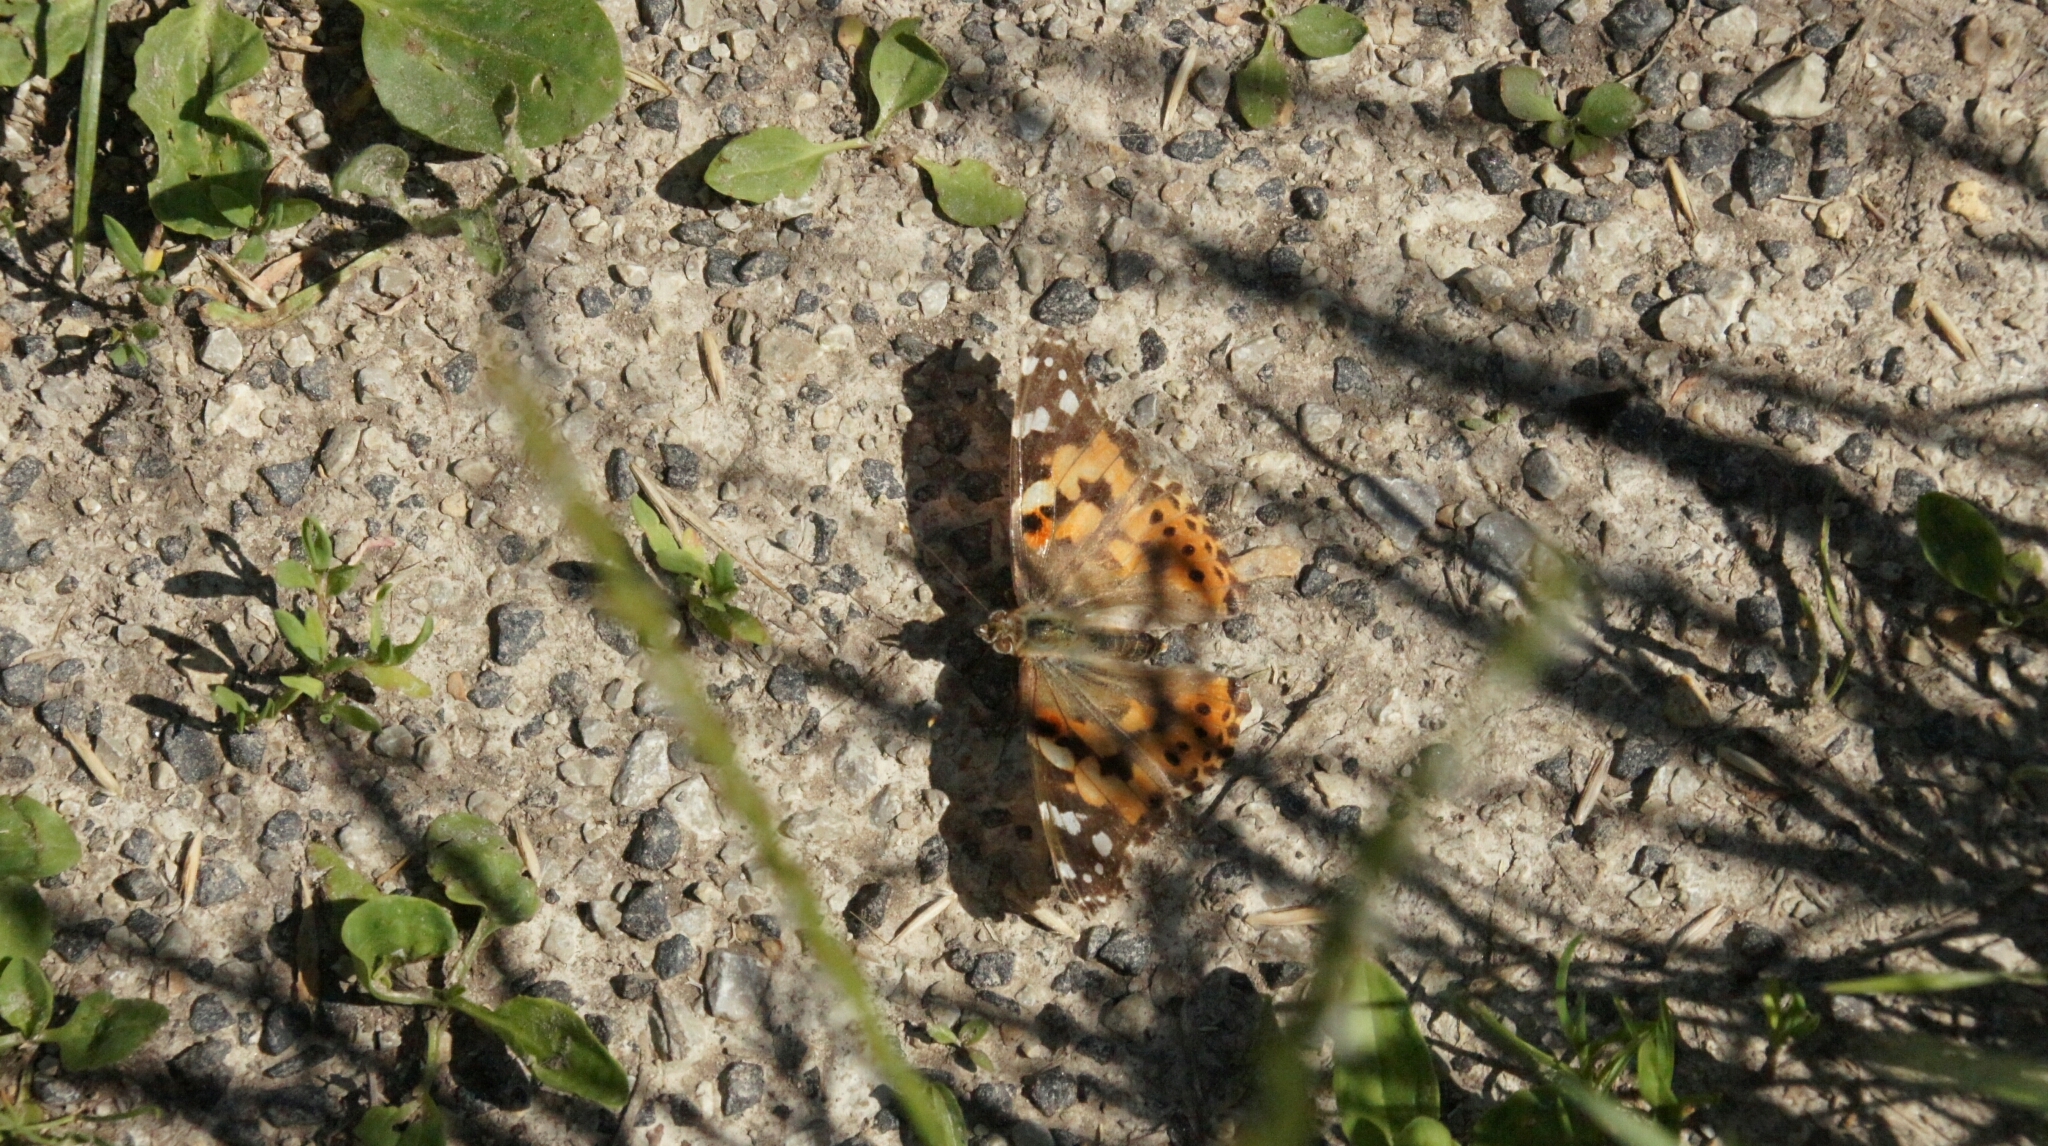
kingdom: Animalia
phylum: Arthropoda
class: Insecta
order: Lepidoptera
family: Nymphalidae
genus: Vanessa
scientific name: Vanessa cardui
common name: Painted lady
